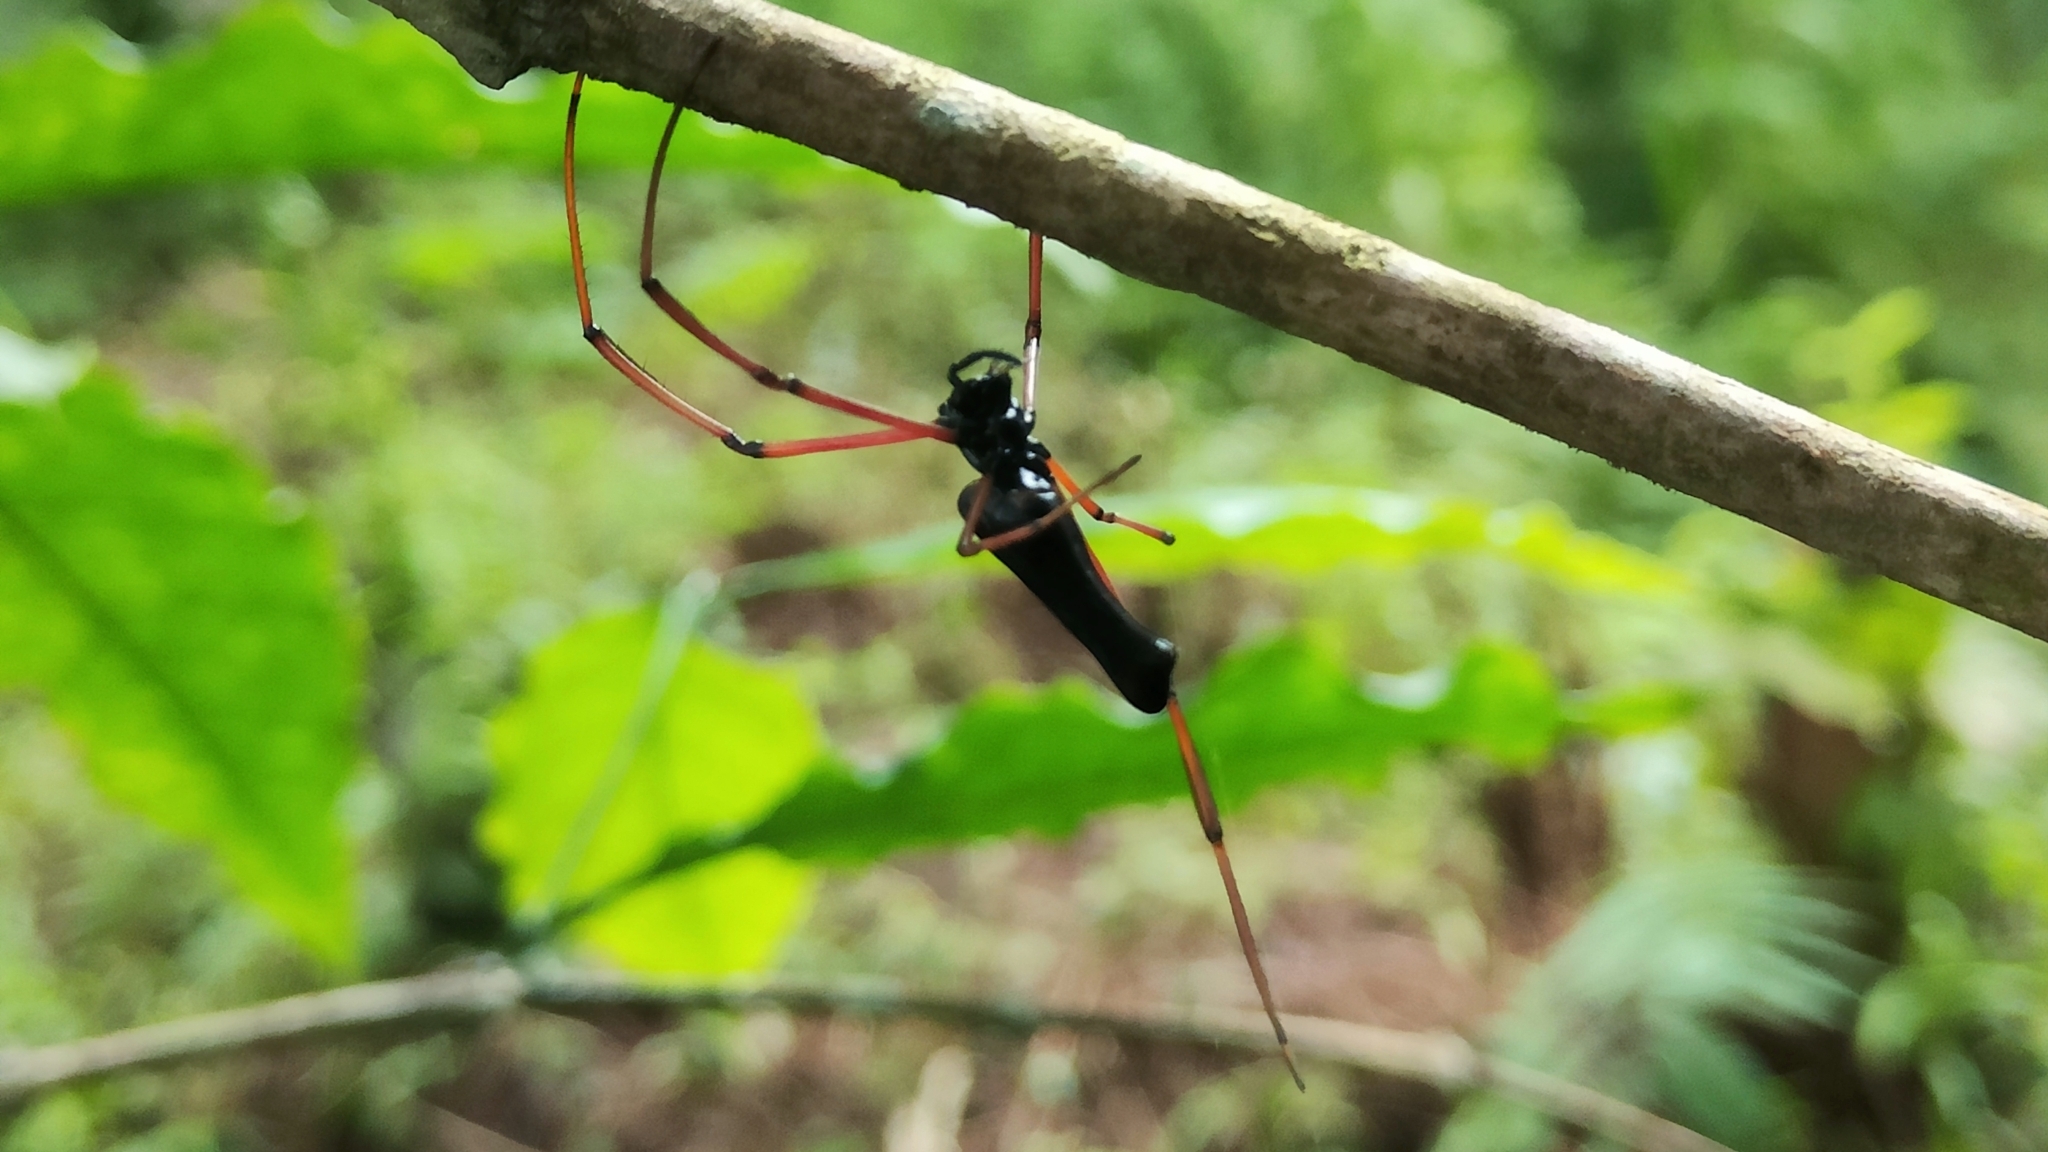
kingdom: Animalia
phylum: Arthropoda
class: Arachnida
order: Araneae
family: Araneidae
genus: Nephila
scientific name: Nephila kuhli
